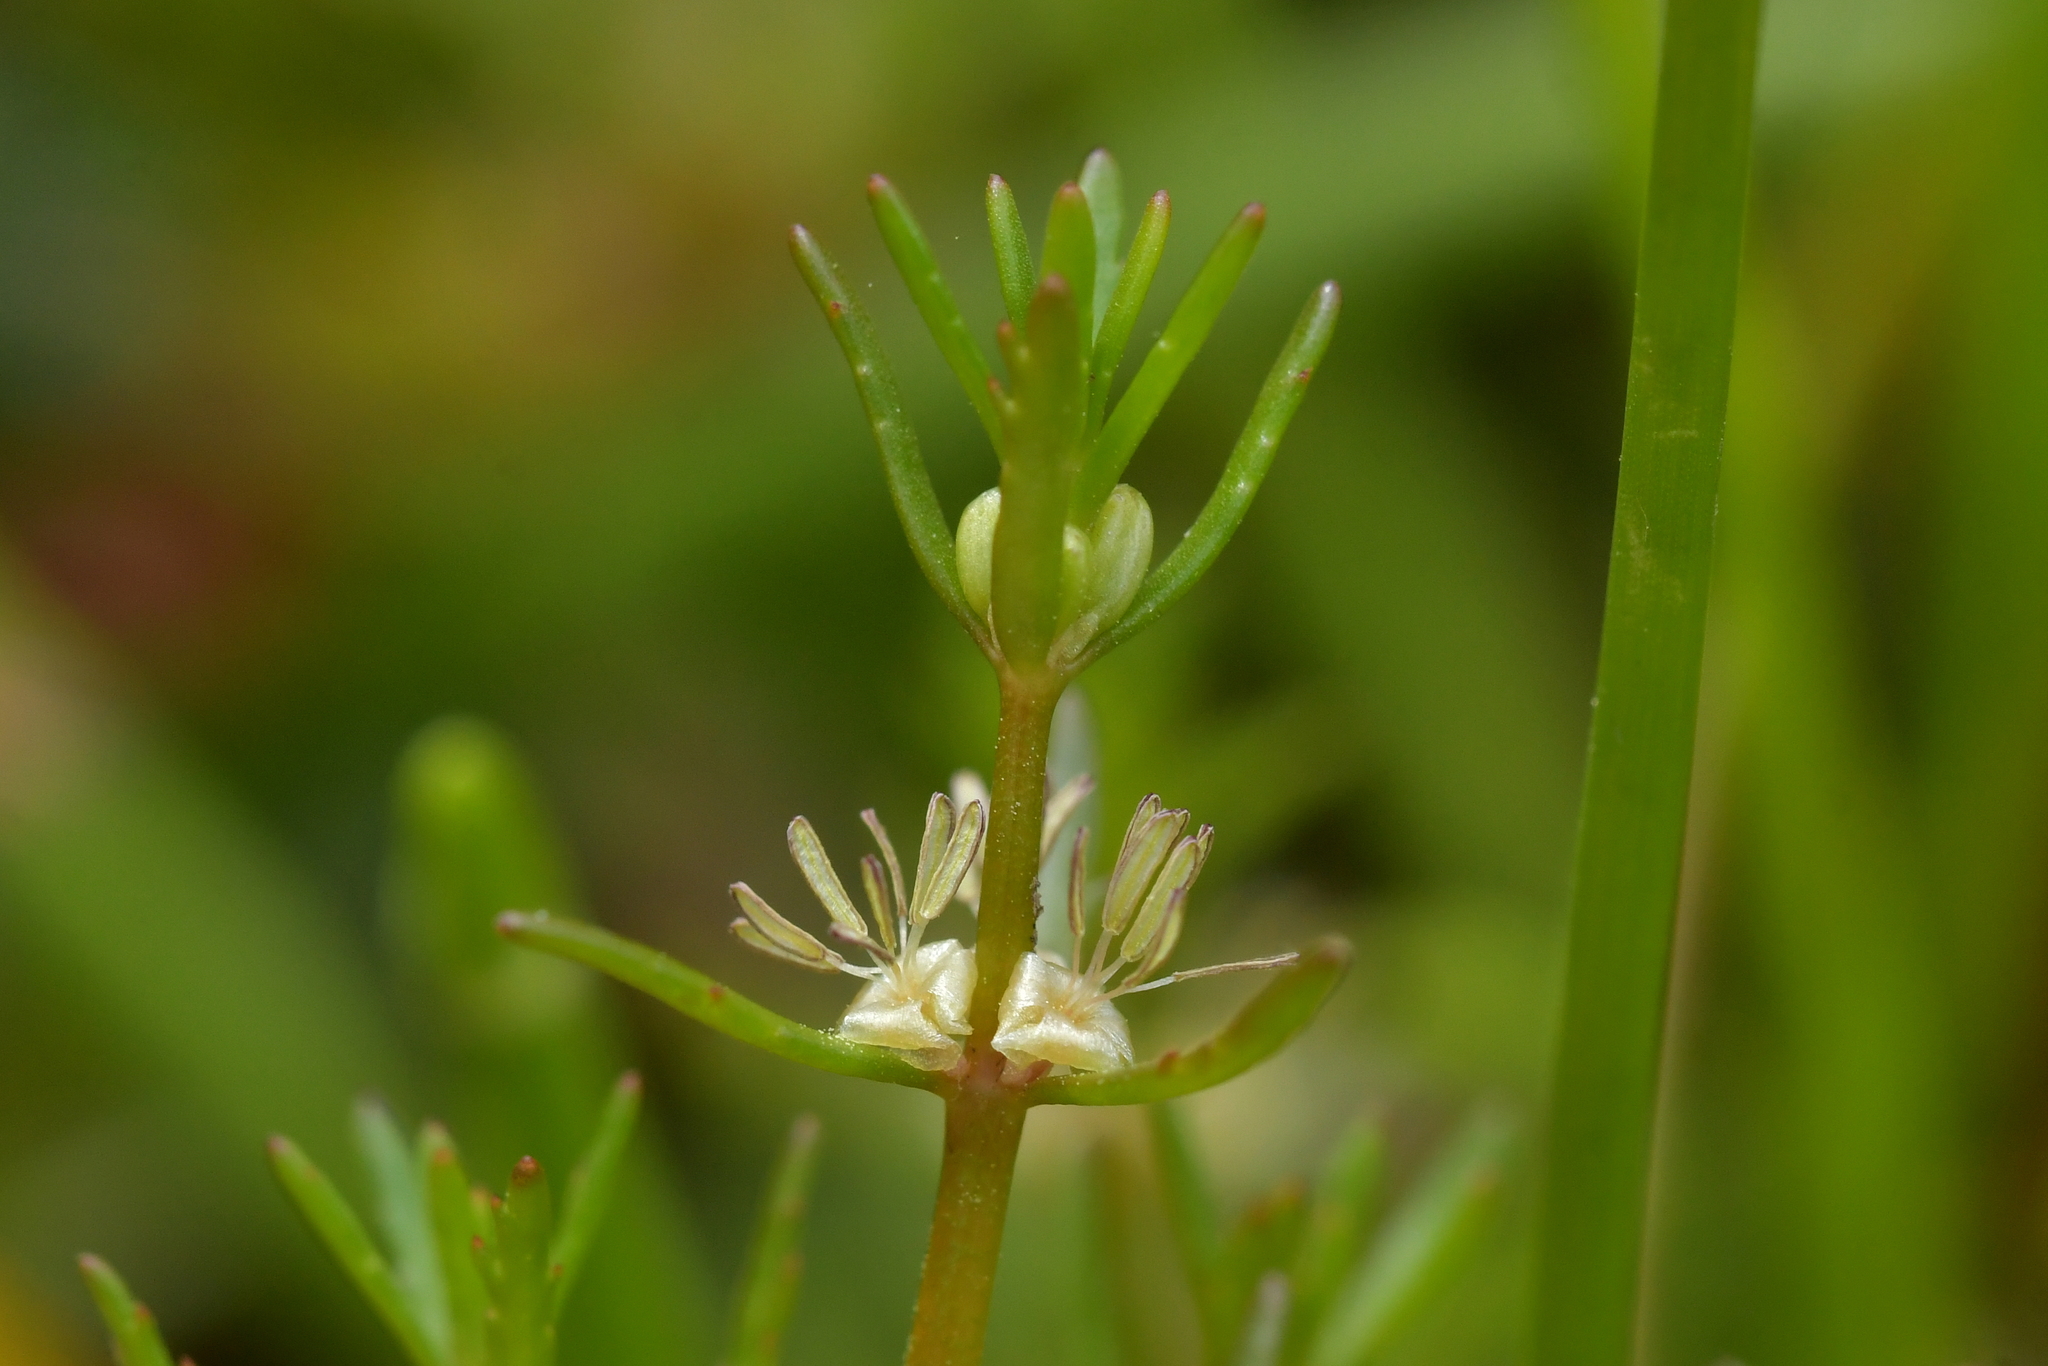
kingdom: Plantae
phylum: Tracheophyta
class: Magnoliopsida
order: Saxifragales
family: Haloragaceae
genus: Myriophyllum
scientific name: Myriophyllum propinquum
